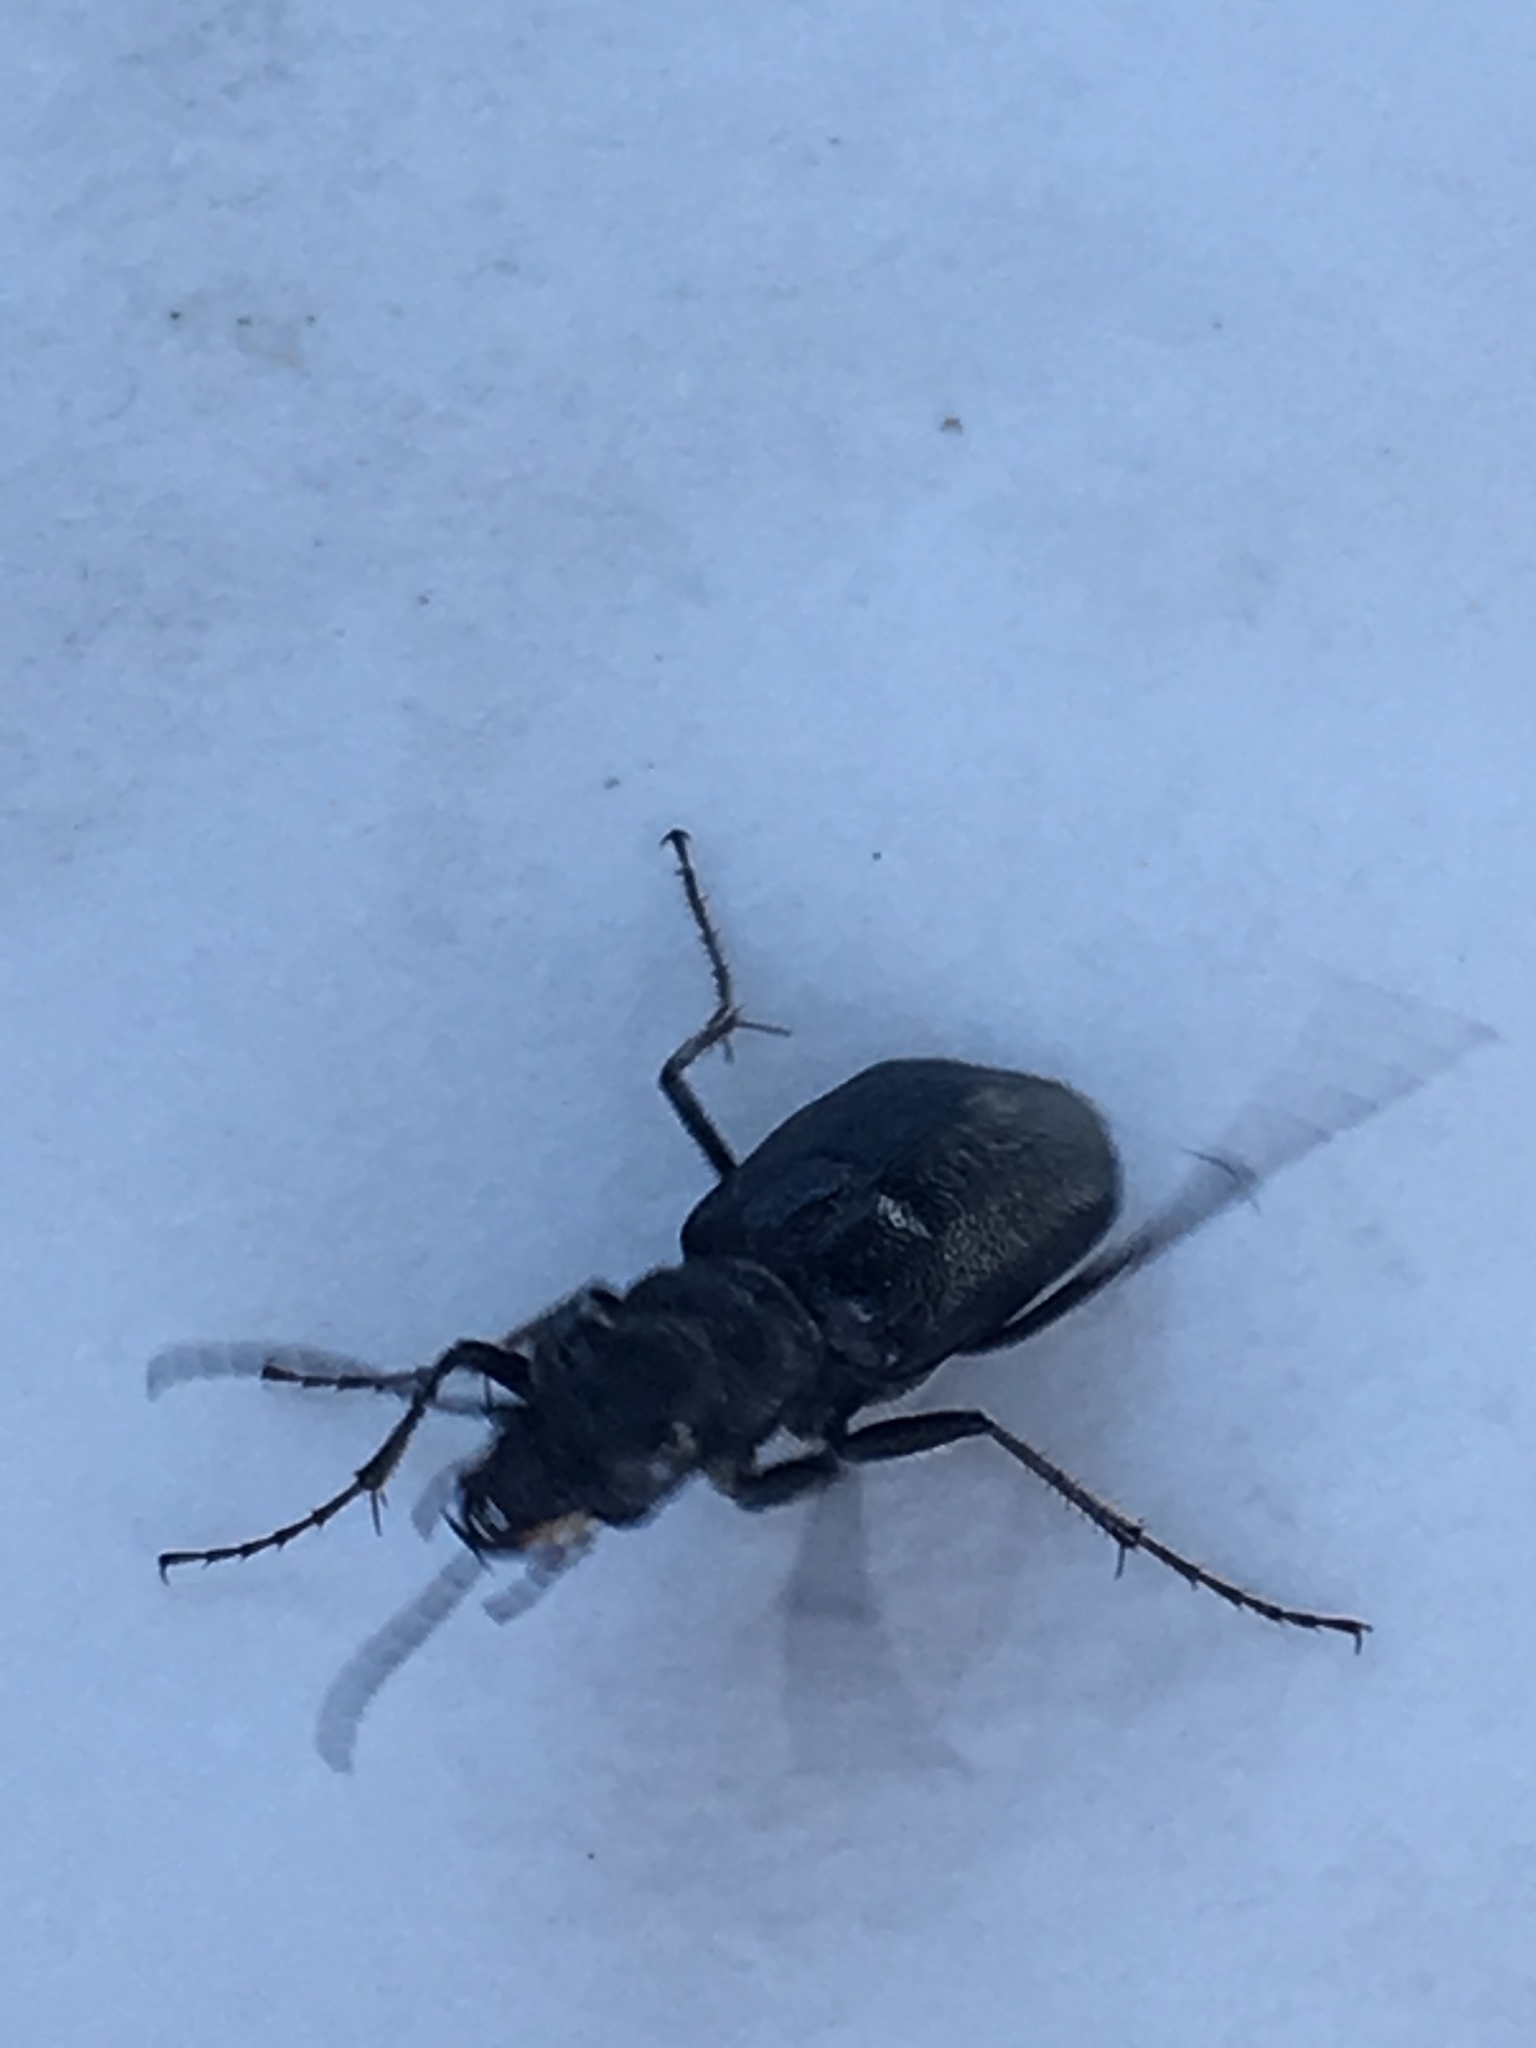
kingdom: Animalia
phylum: Arthropoda
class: Insecta
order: Coleoptera
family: Carabidae
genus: Cicindela
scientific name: Cicindela nebraskana
